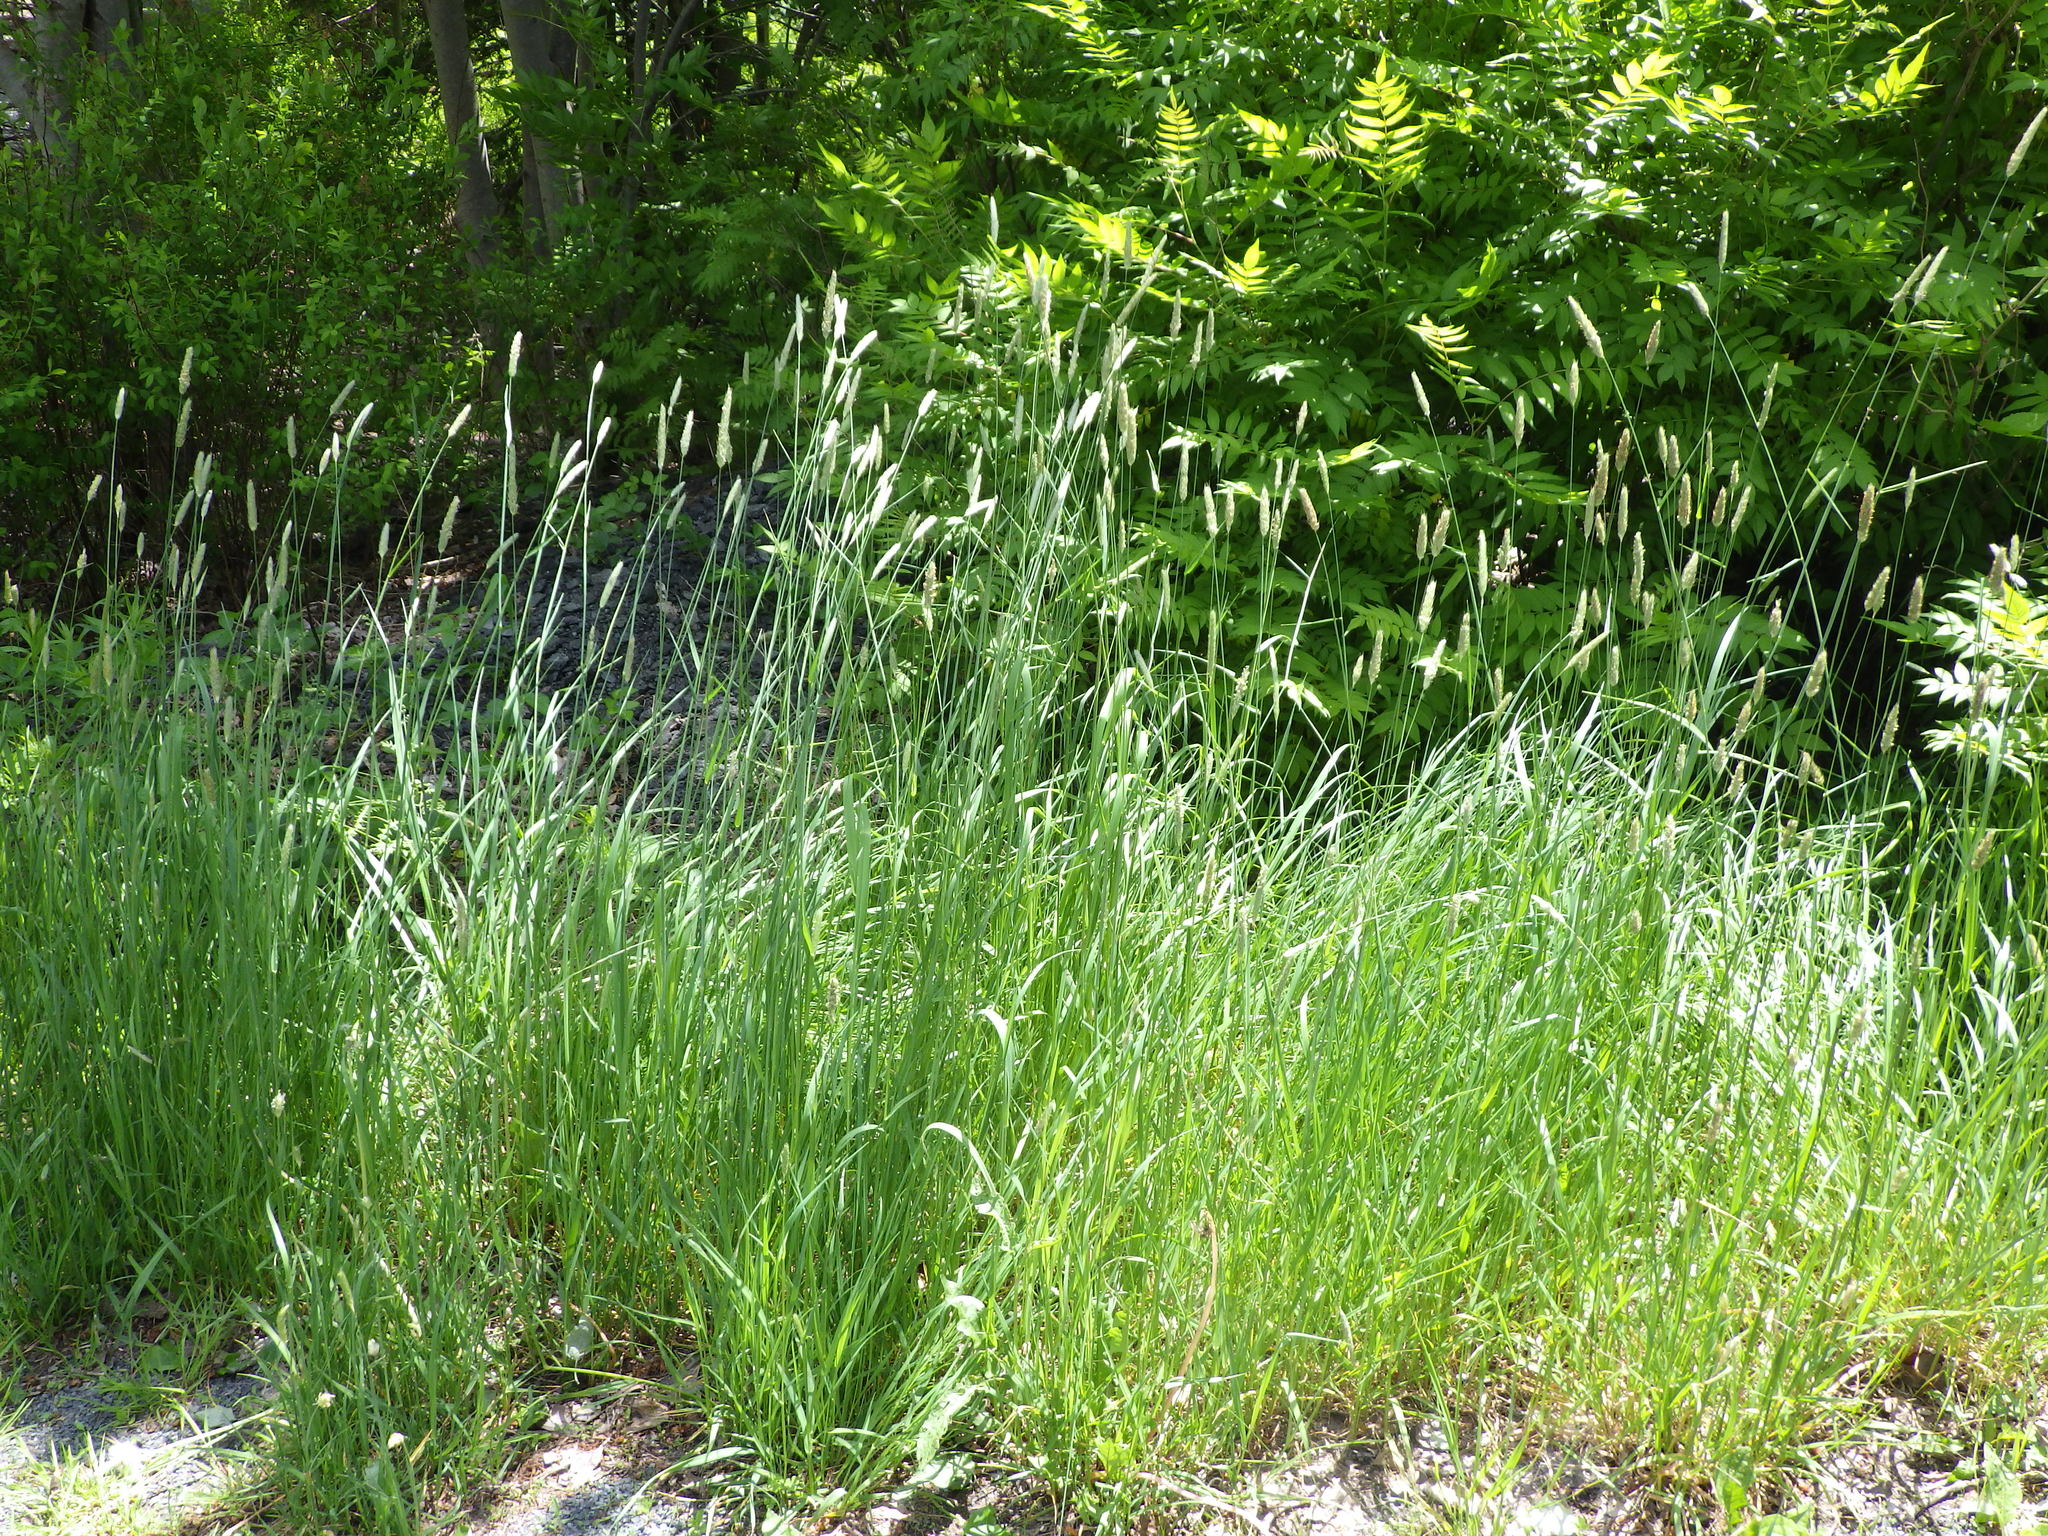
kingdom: Plantae
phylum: Tracheophyta
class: Liliopsida
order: Poales
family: Poaceae
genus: Alopecurus
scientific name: Alopecurus pratensis
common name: Meadow foxtail
